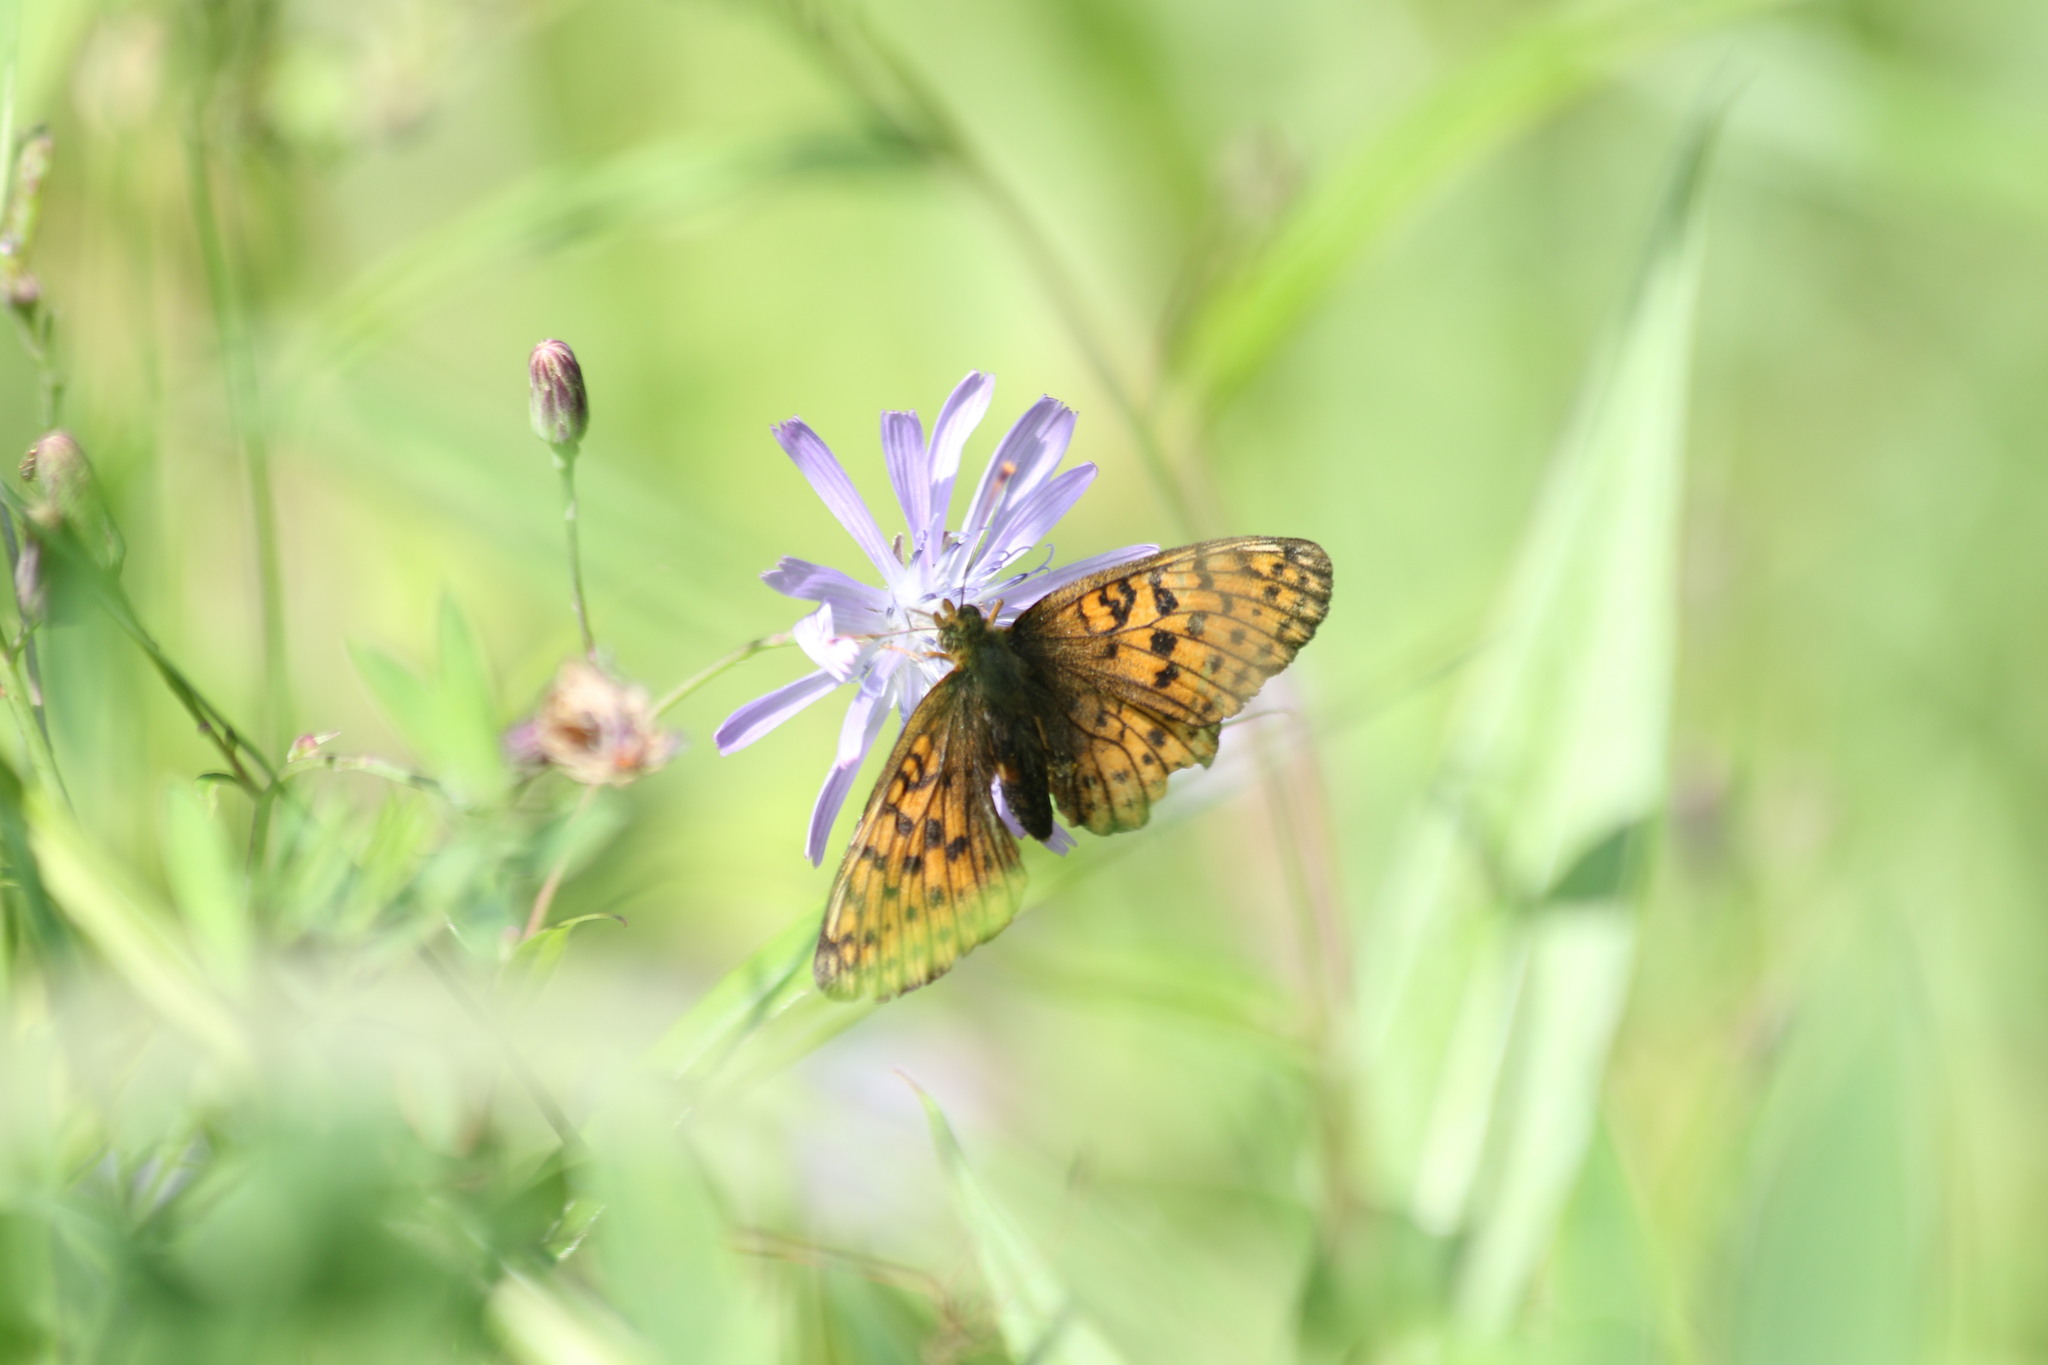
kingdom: Animalia
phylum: Arthropoda
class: Insecta
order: Lepidoptera
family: Nymphalidae
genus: Brenthis
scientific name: Brenthis ino
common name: Lesser marbled fritillary
